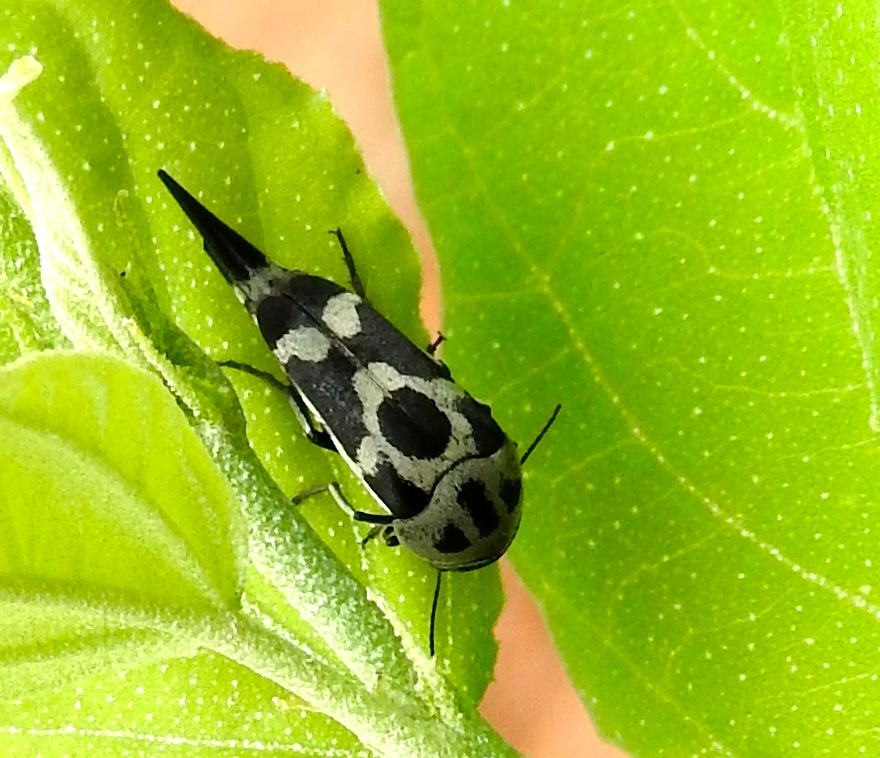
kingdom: Animalia
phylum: Arthropoda
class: Insecta
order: Coleoptera
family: Mordellidae
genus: Mordella
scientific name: Mordella
